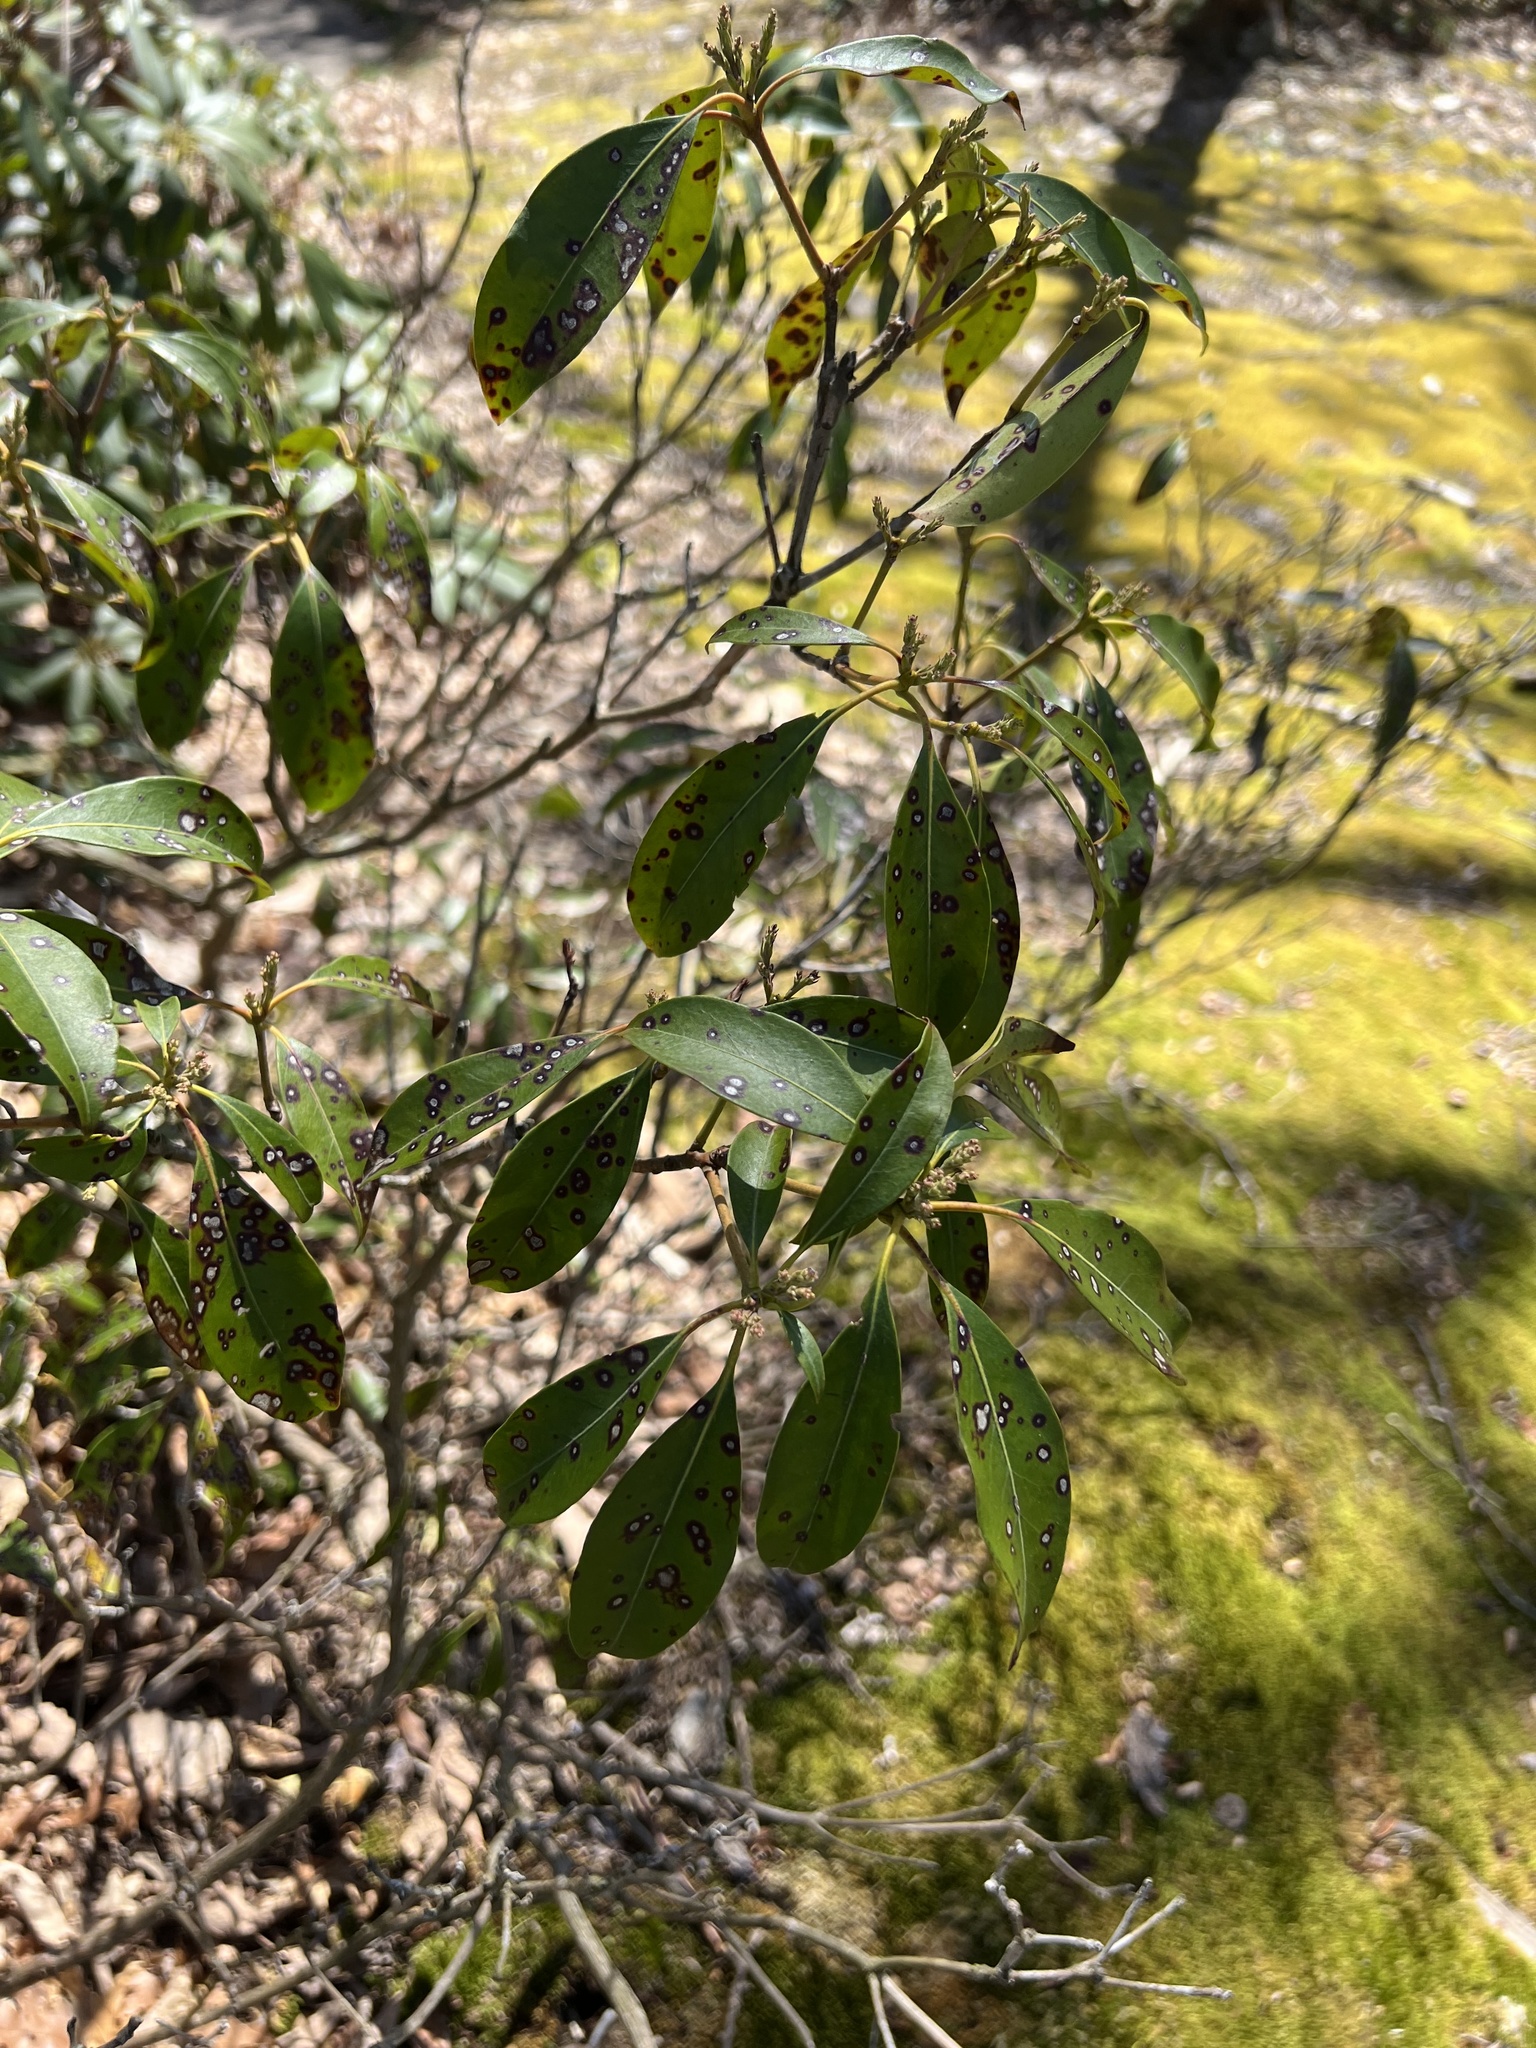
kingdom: Plantae
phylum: Tracheophyta
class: Magnoliopsida
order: Ericales
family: Ericaceae
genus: Kalmia
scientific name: Kalmia latifolia
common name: Mountain-laurel
